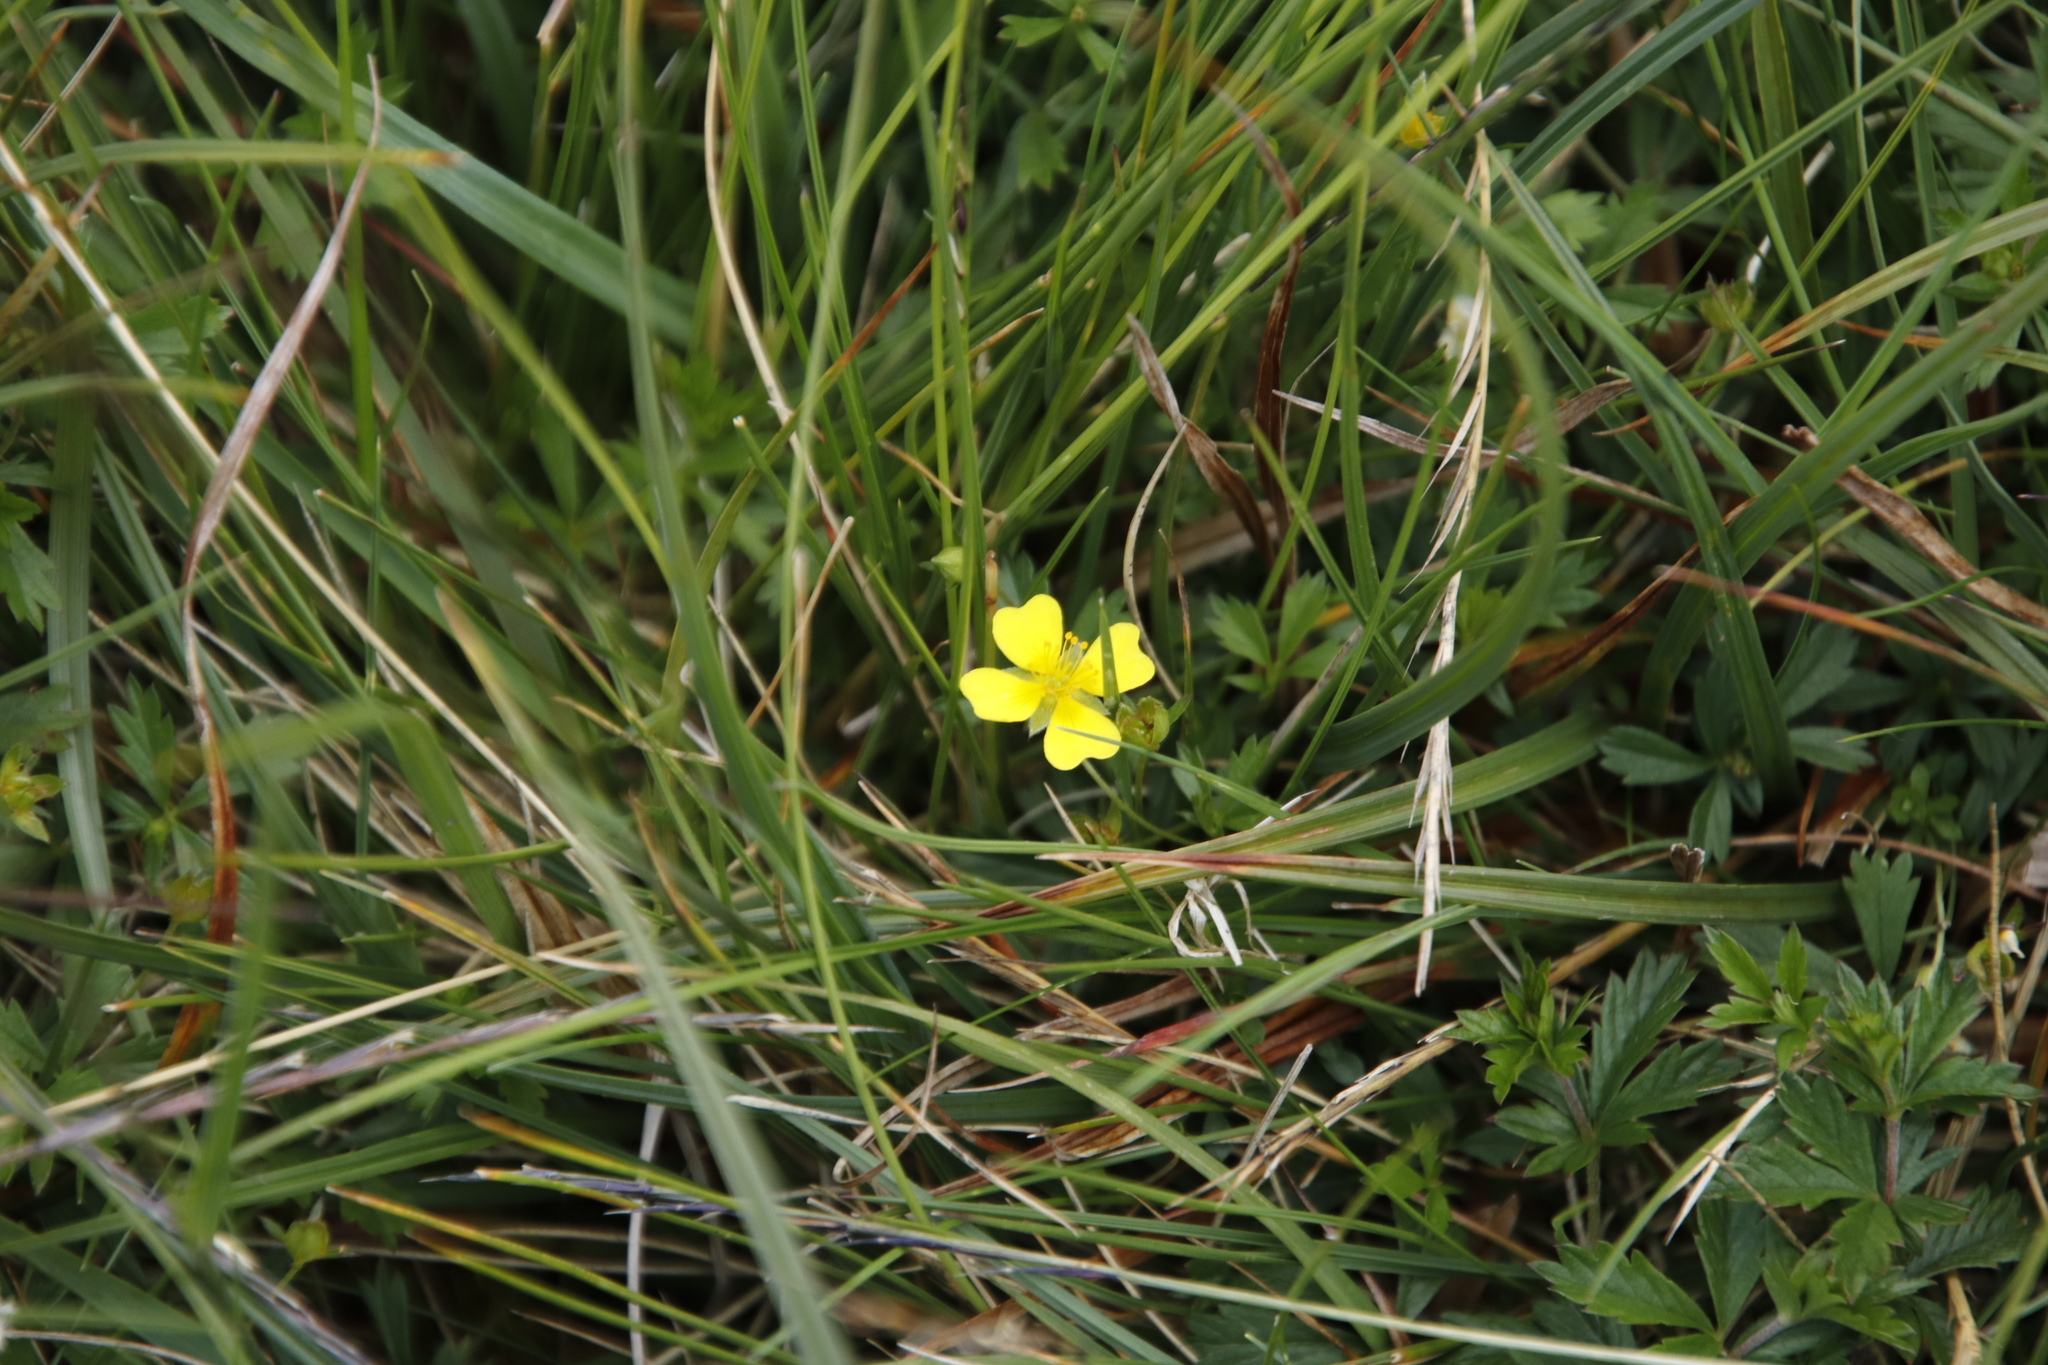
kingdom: Plantae
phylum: Tracheophyta
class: Magnoliopsida
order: Rosales
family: Rosaceae
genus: Potentilla
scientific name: Potentilla erecta
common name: Tormentil
